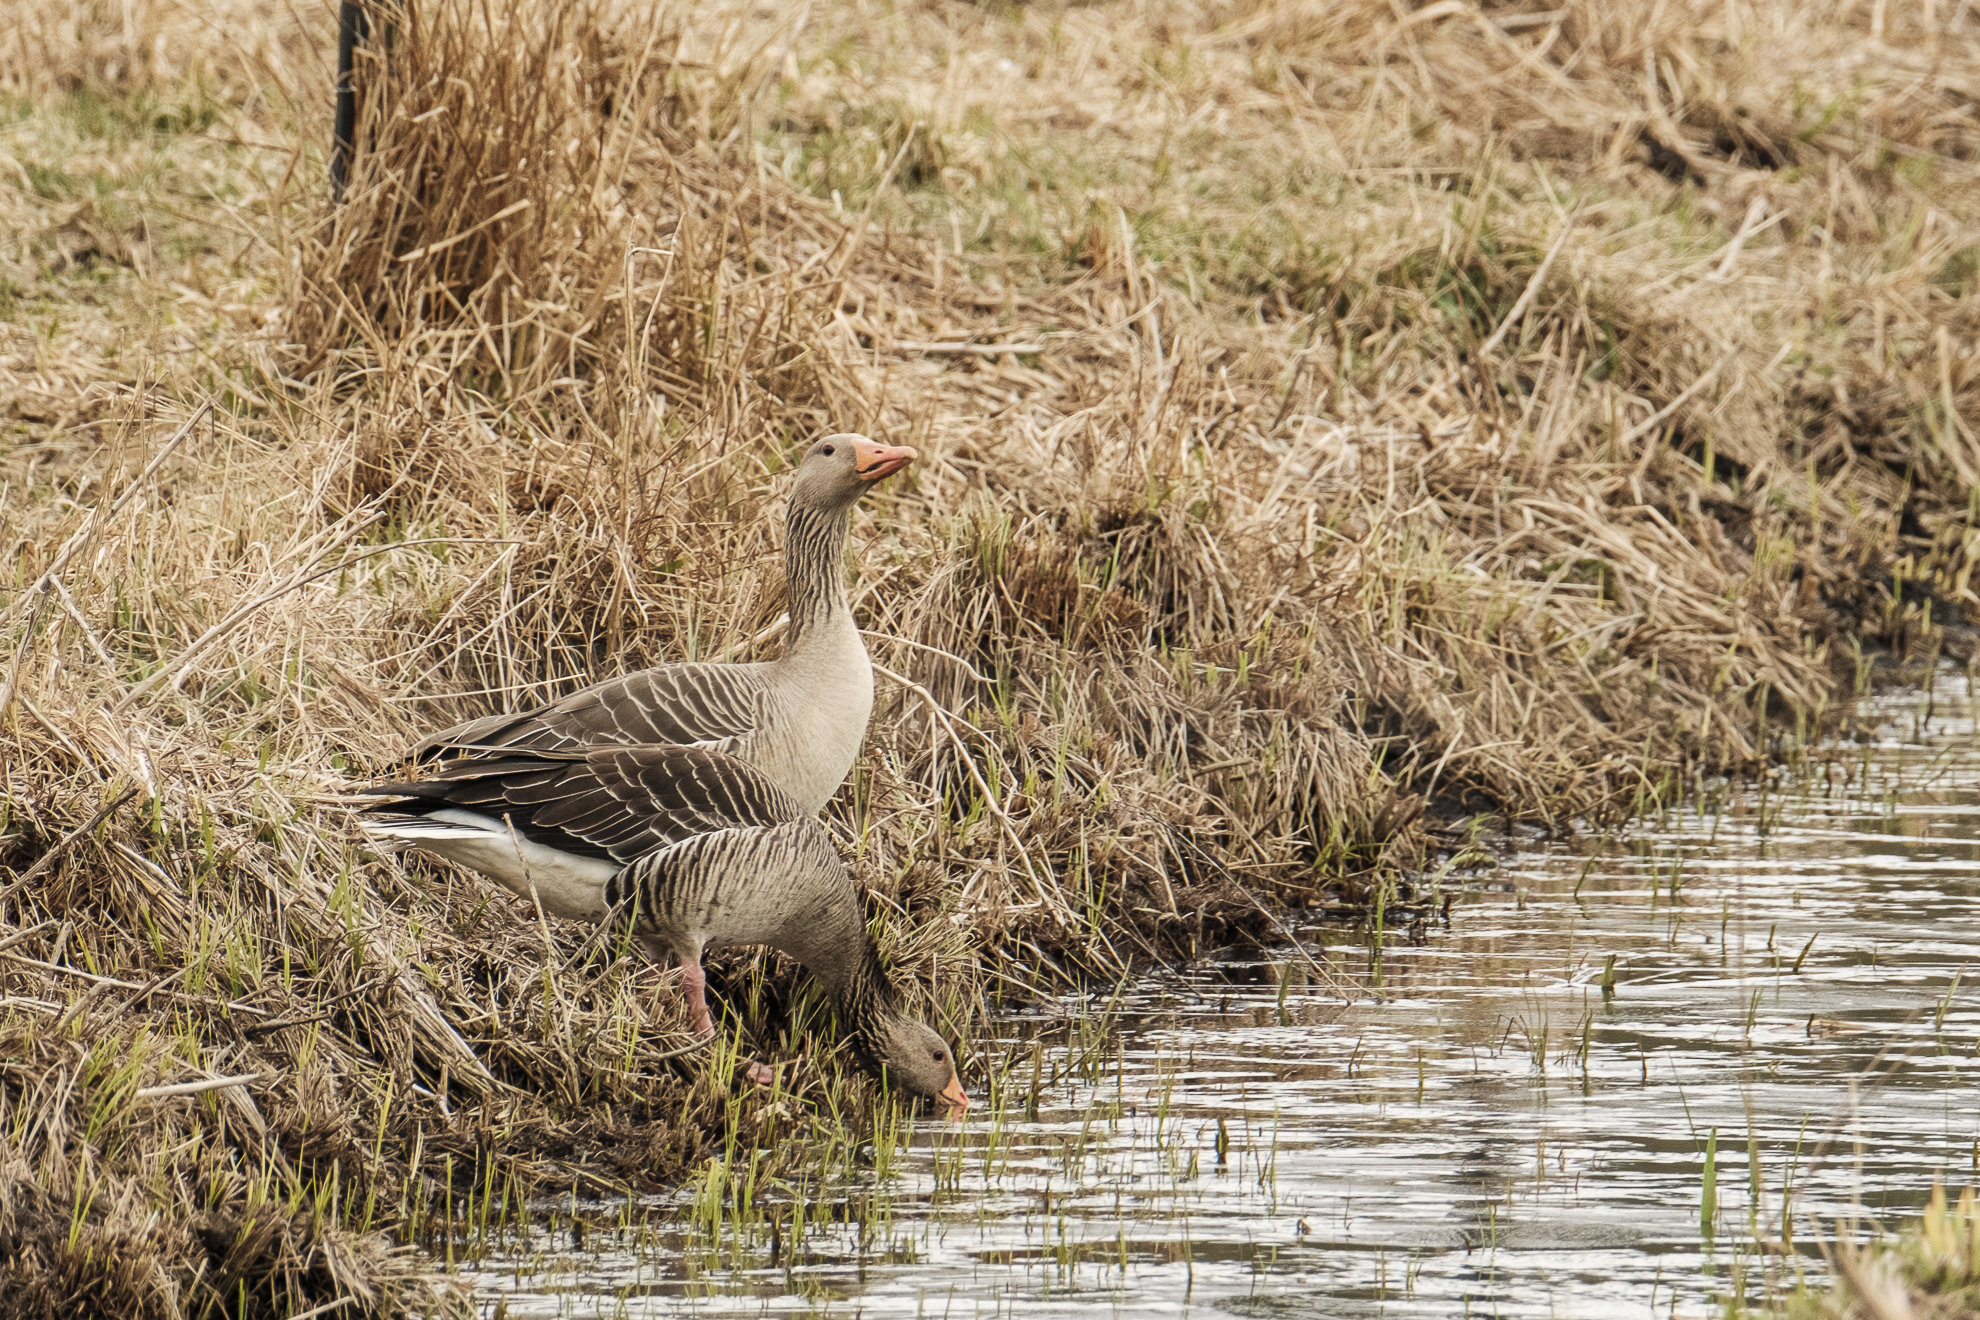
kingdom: Animalia
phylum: Chordata
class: Aves
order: Anseriformes
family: Anatidae
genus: Anser
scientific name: Anser anser
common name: Greylag goose
